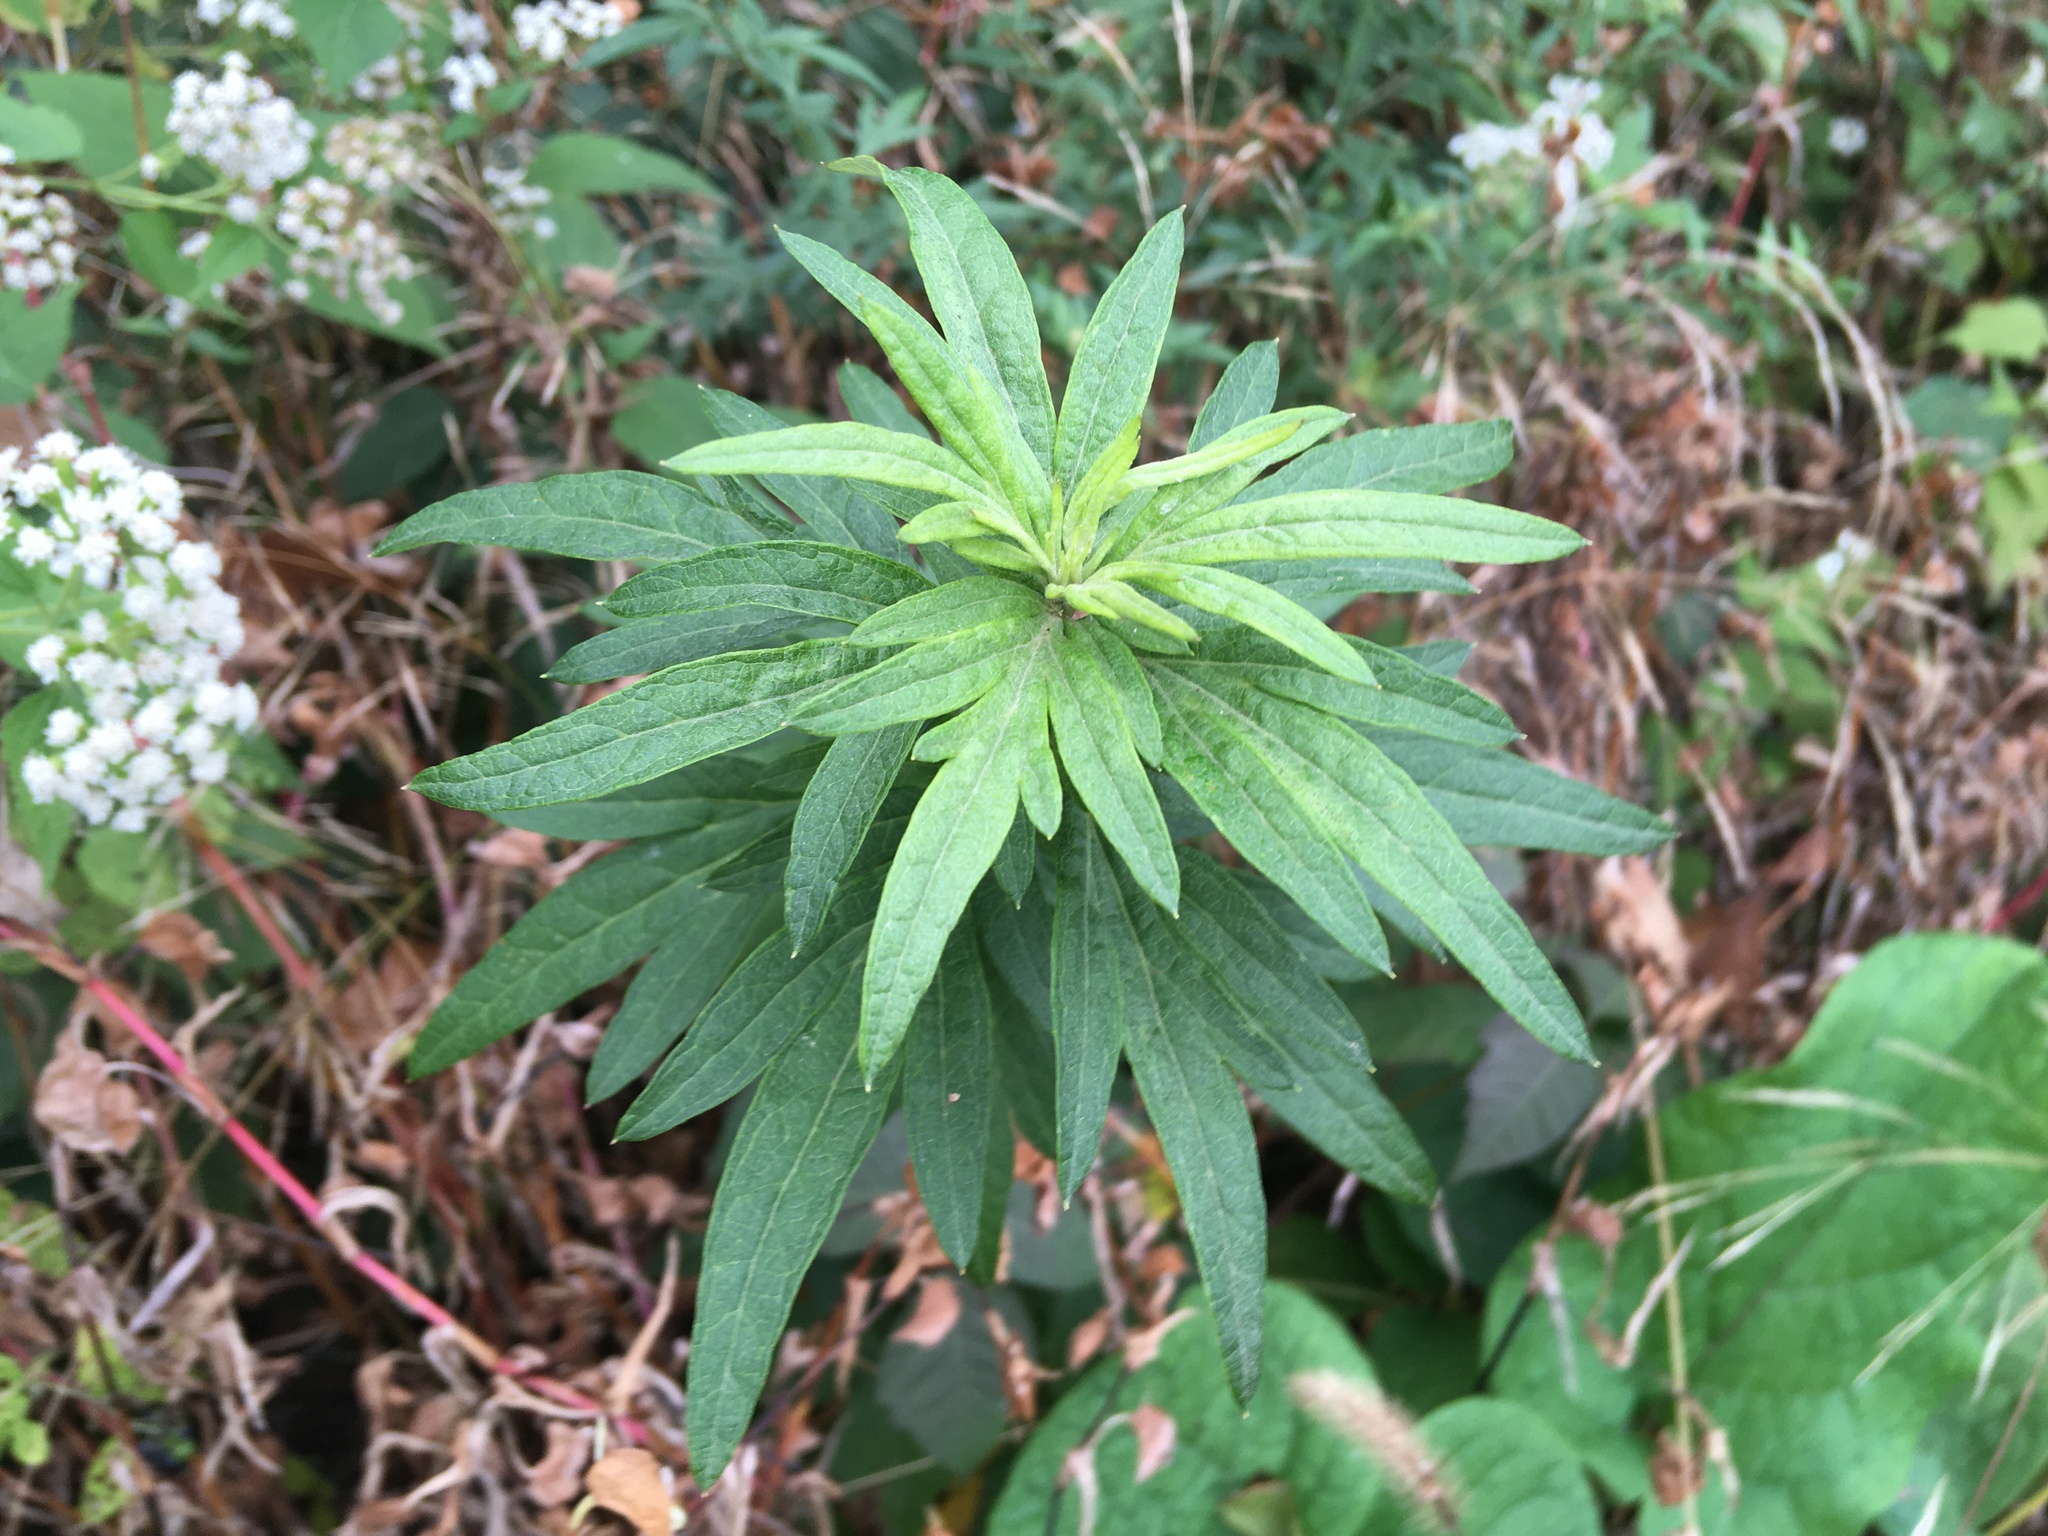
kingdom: Plantae
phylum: Tracheophyta
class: Magnoliopsida
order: Asterales
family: Asteraceae
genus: Artemisia
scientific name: Artemisia vulgaris
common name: Mugwort
